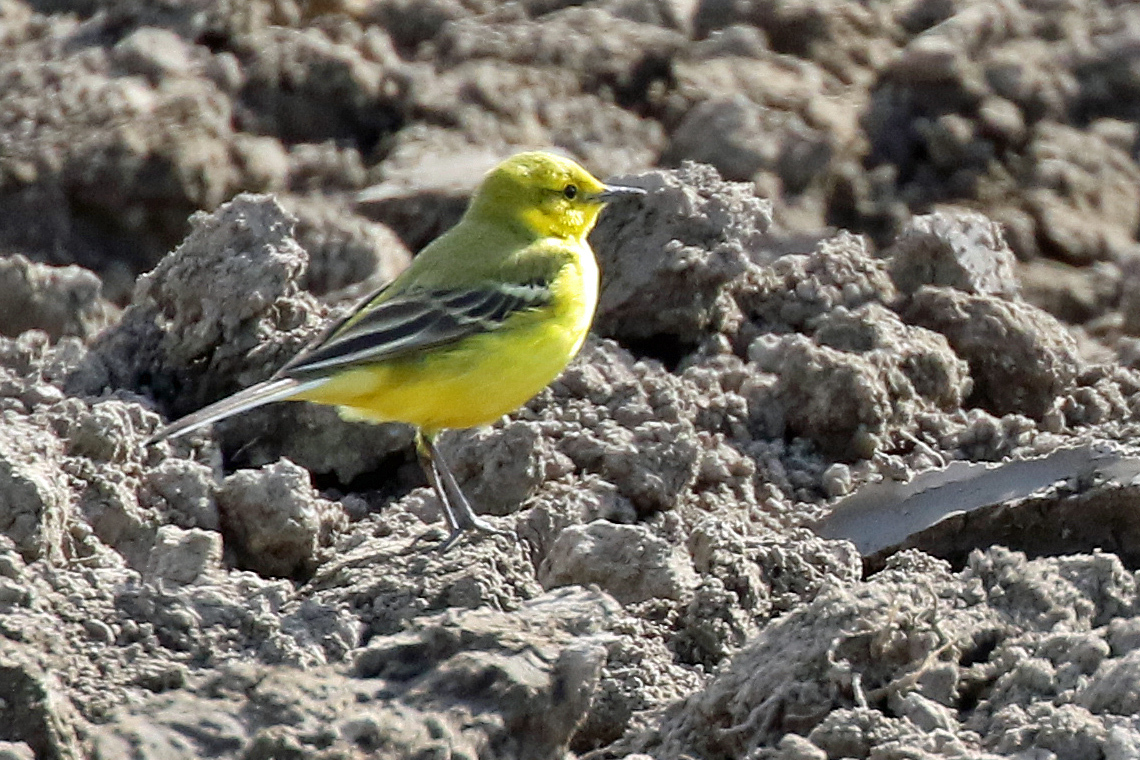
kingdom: Animalia
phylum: Chordata
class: Aves
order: Passeriformes
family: Motacillidae
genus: Motacilla
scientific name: Motacilla flava
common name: Western yellow wagtail
